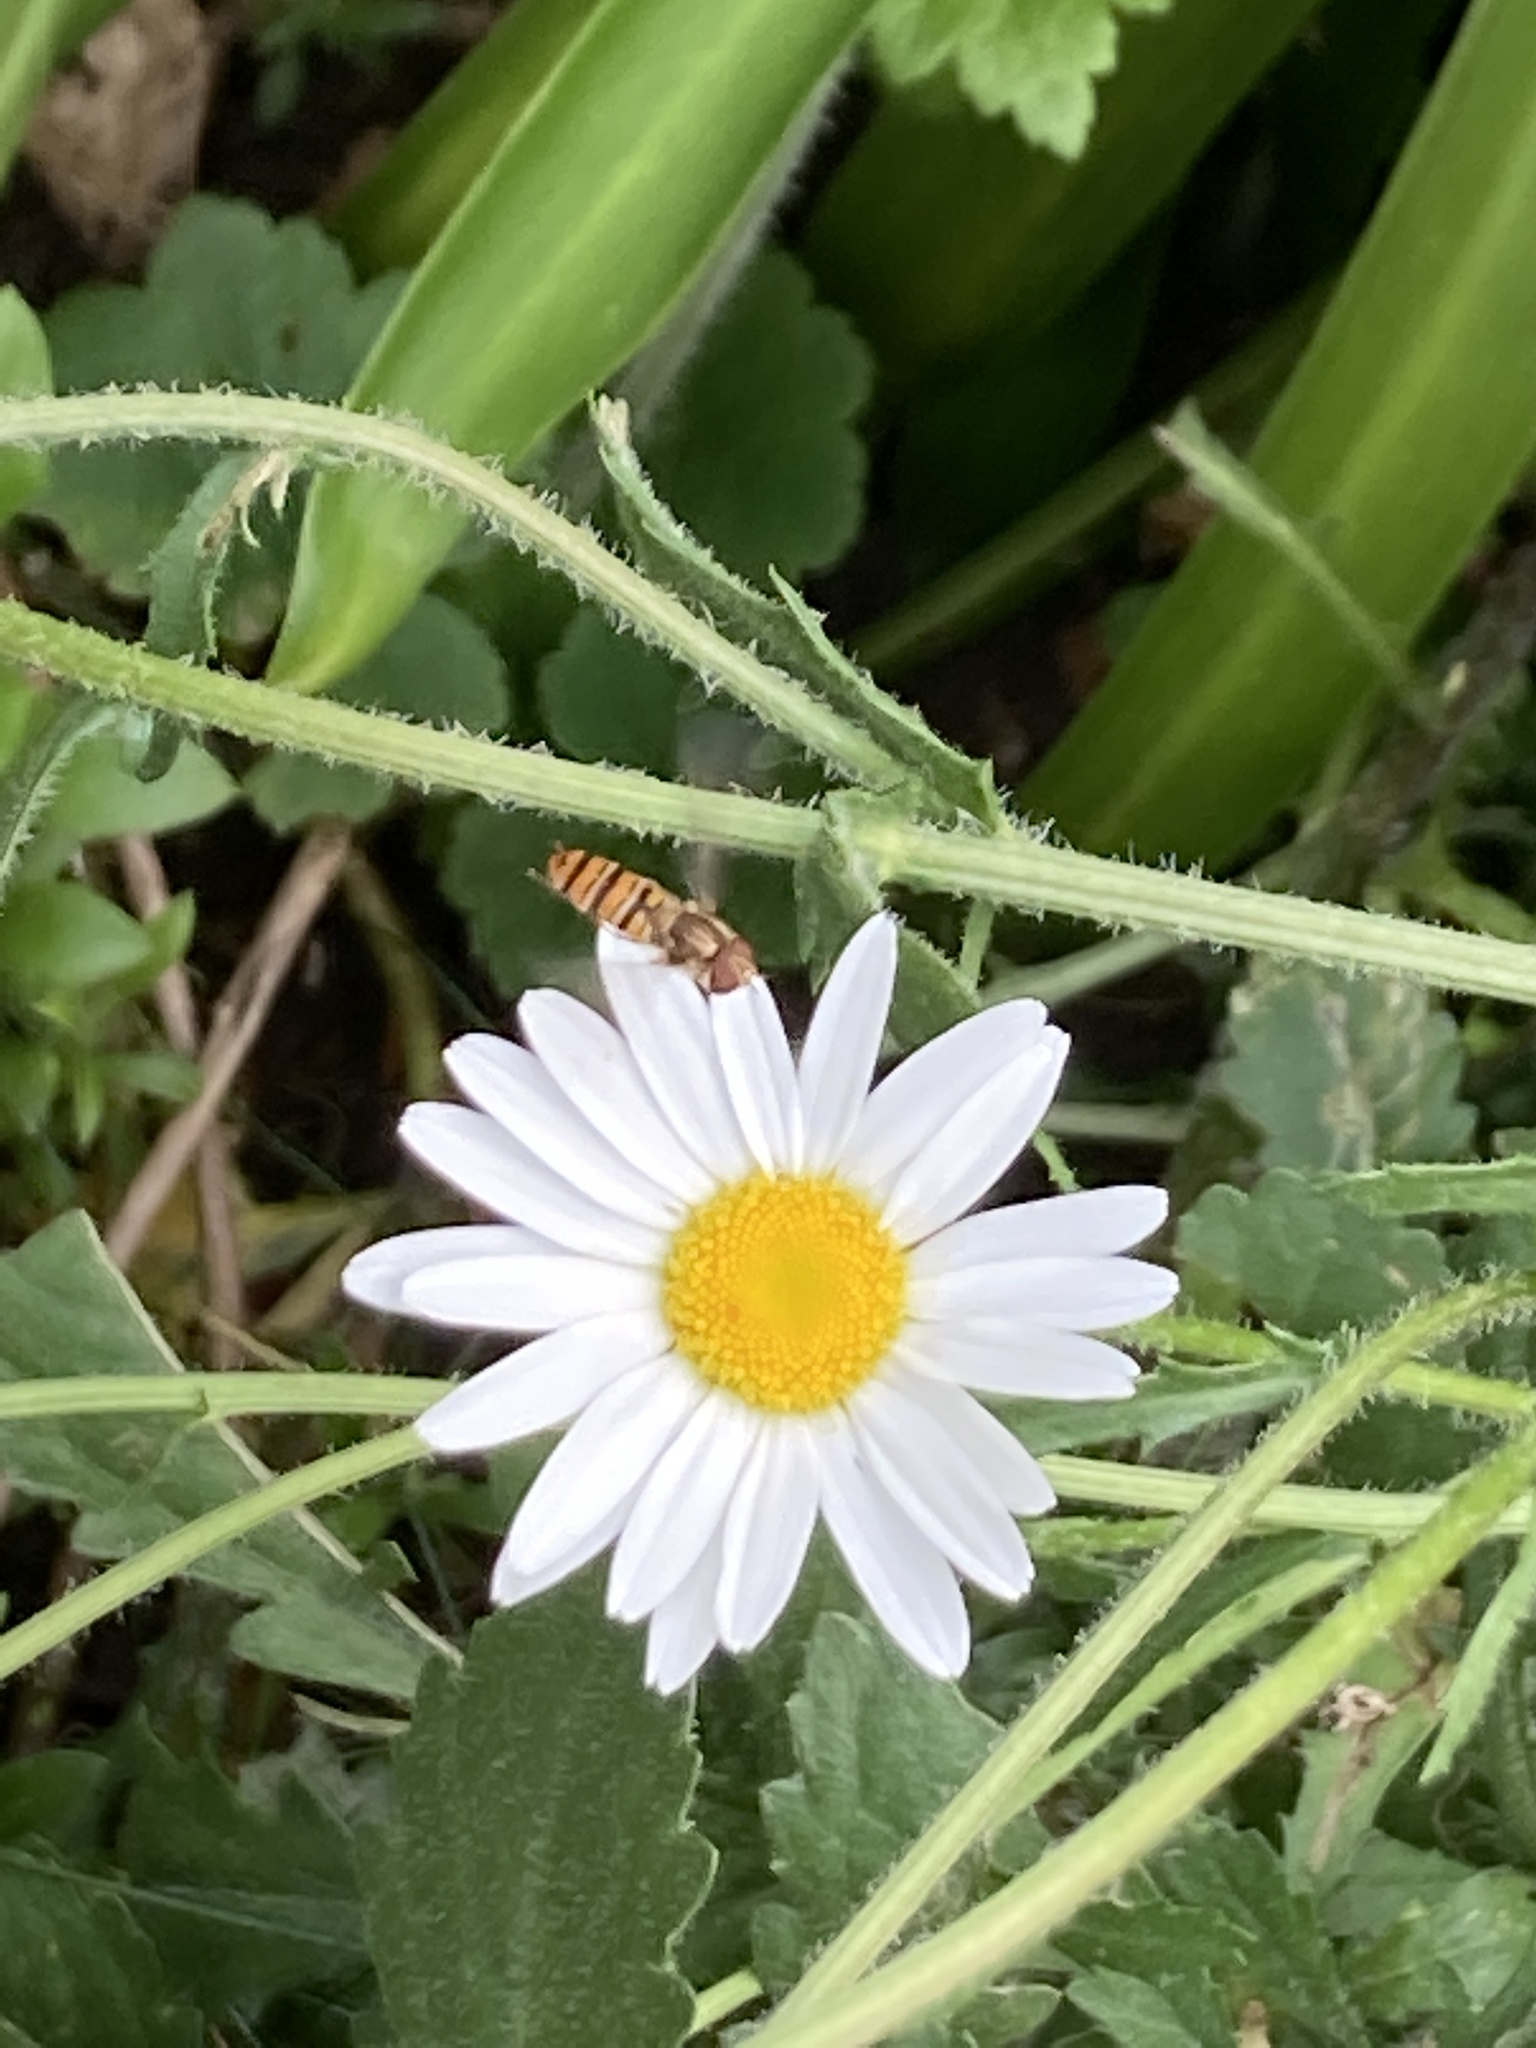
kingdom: Animalia
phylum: Arthropoda
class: Insecta
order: Diptera
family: Syrphidae
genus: Episyrphus
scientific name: Episyrphus balteatus
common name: Marmalade hoverfly
